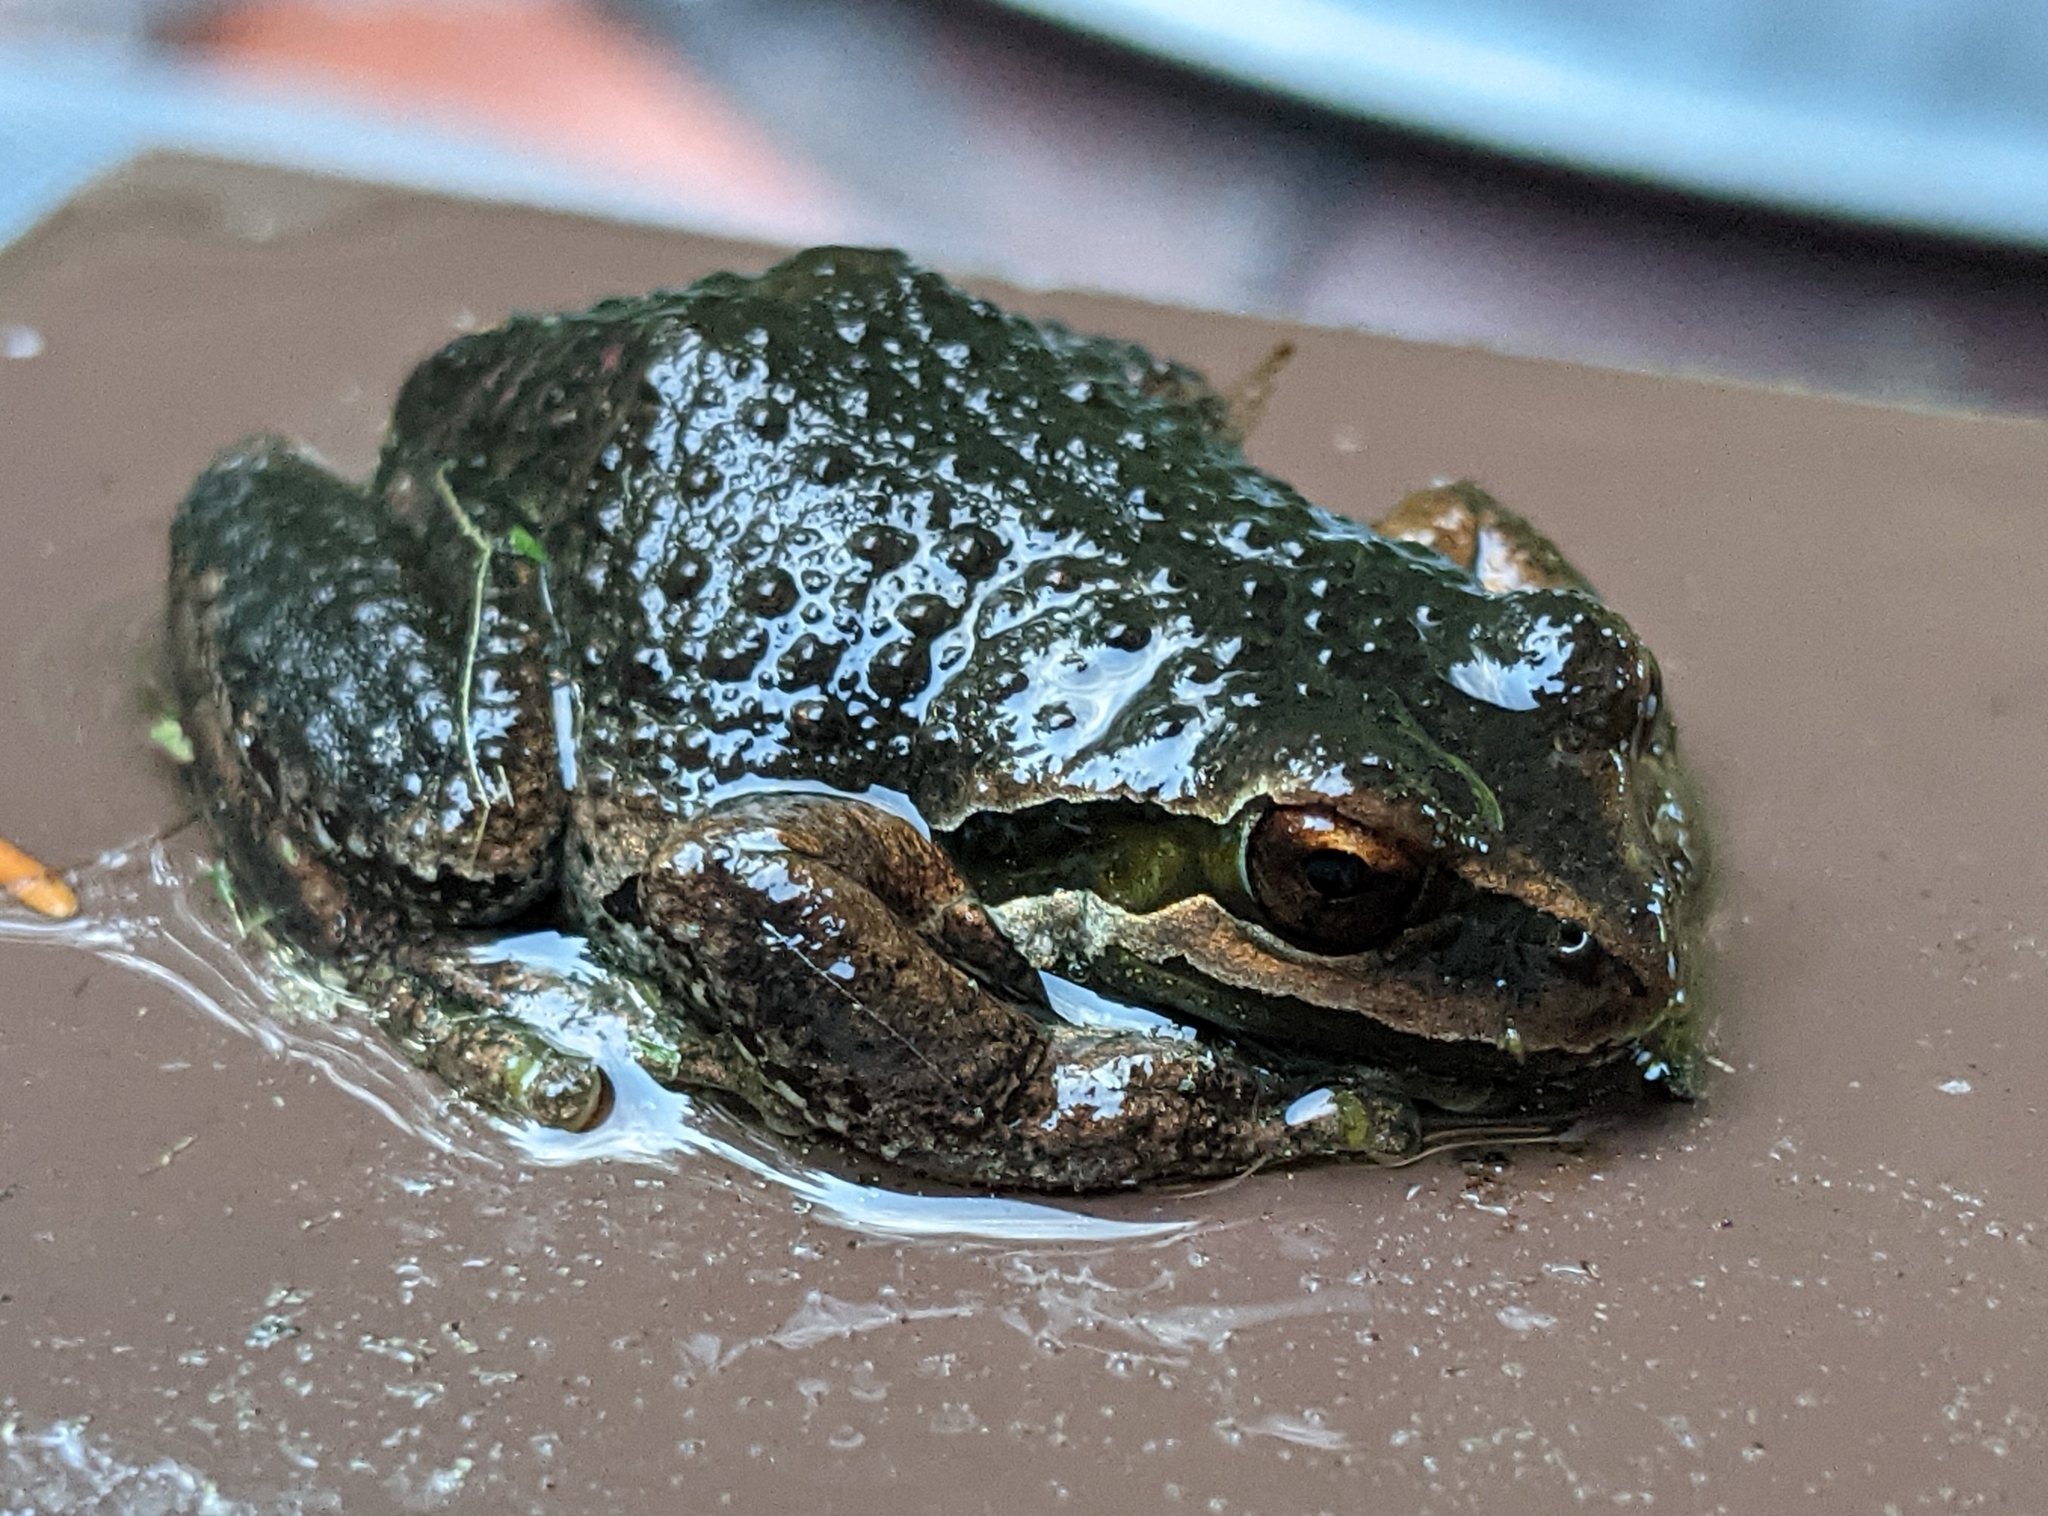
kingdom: Animalia
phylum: Chordata
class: Amphibia
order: Anura
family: Hylidae
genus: Pseudacris
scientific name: Pseudacris regilla
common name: Pacific chorus frog
